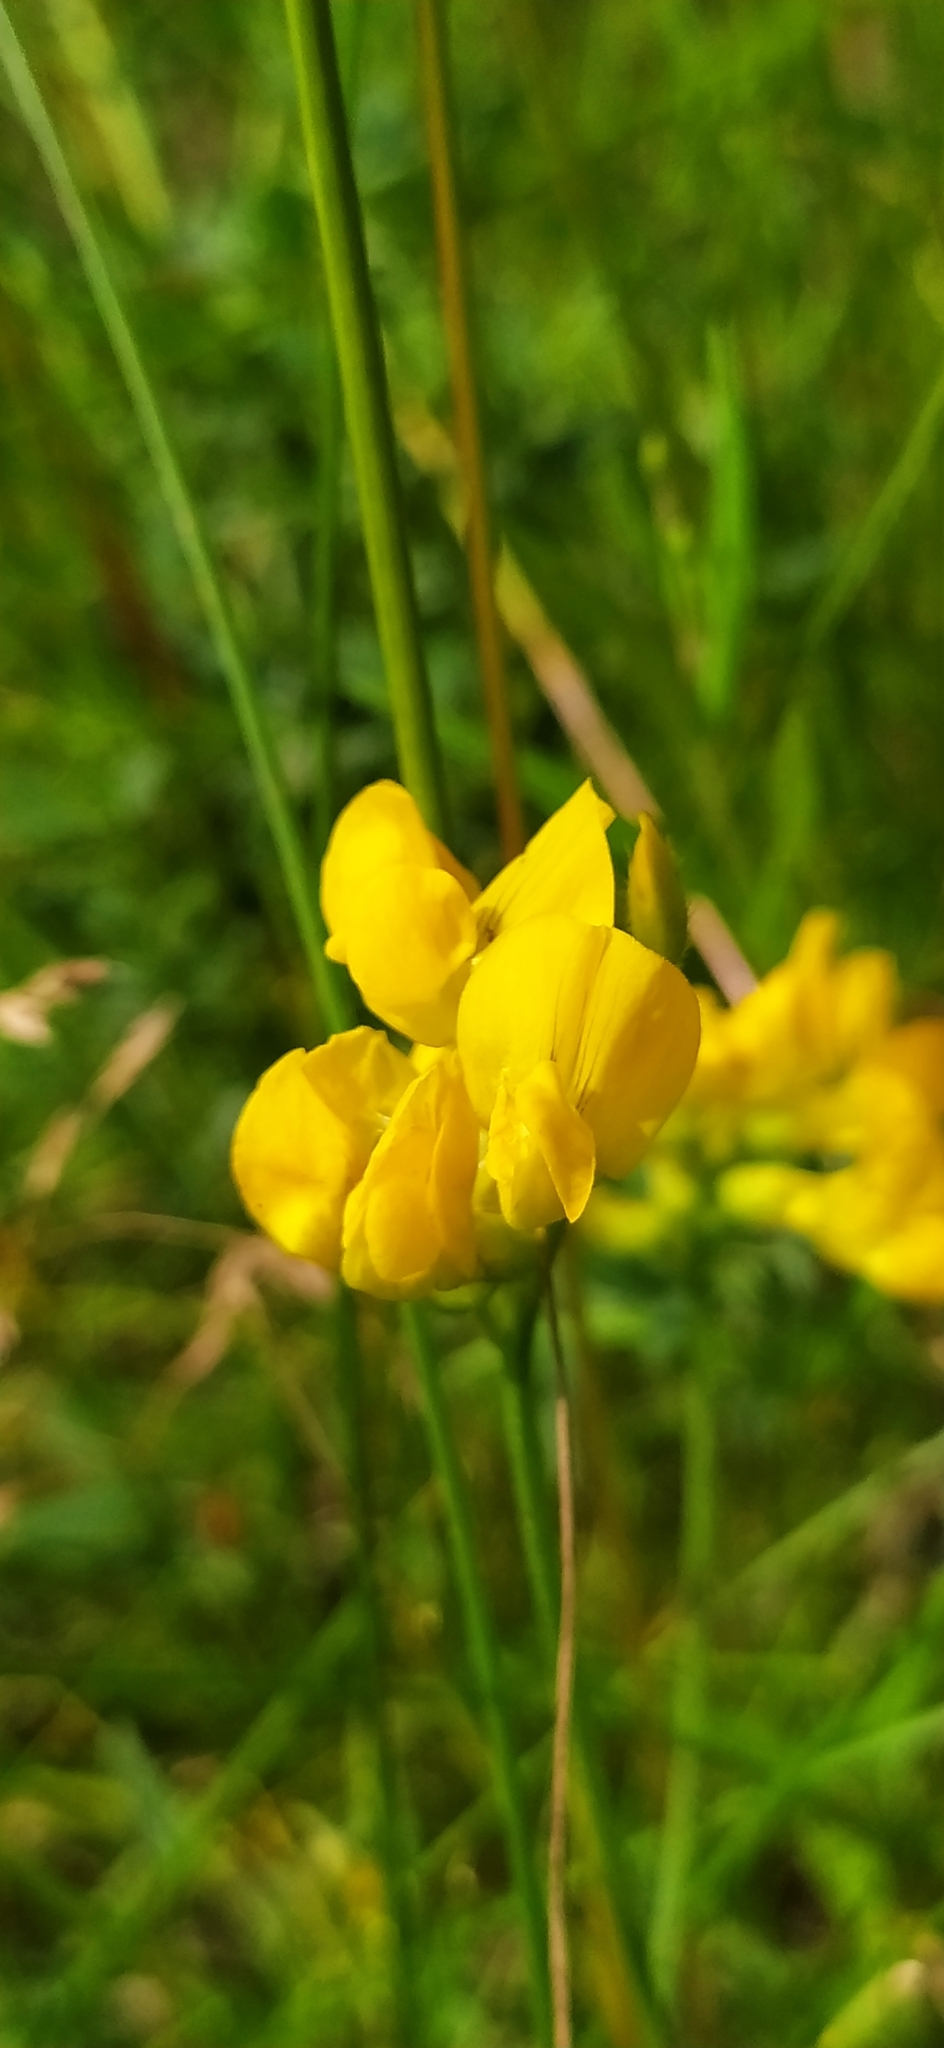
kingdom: Plantae
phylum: Tracheophyta
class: Magnoliopsida
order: Fabales
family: Fabaceae
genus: Lathyrus
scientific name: Lathyrus pratensis
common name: Meadow vetchling
